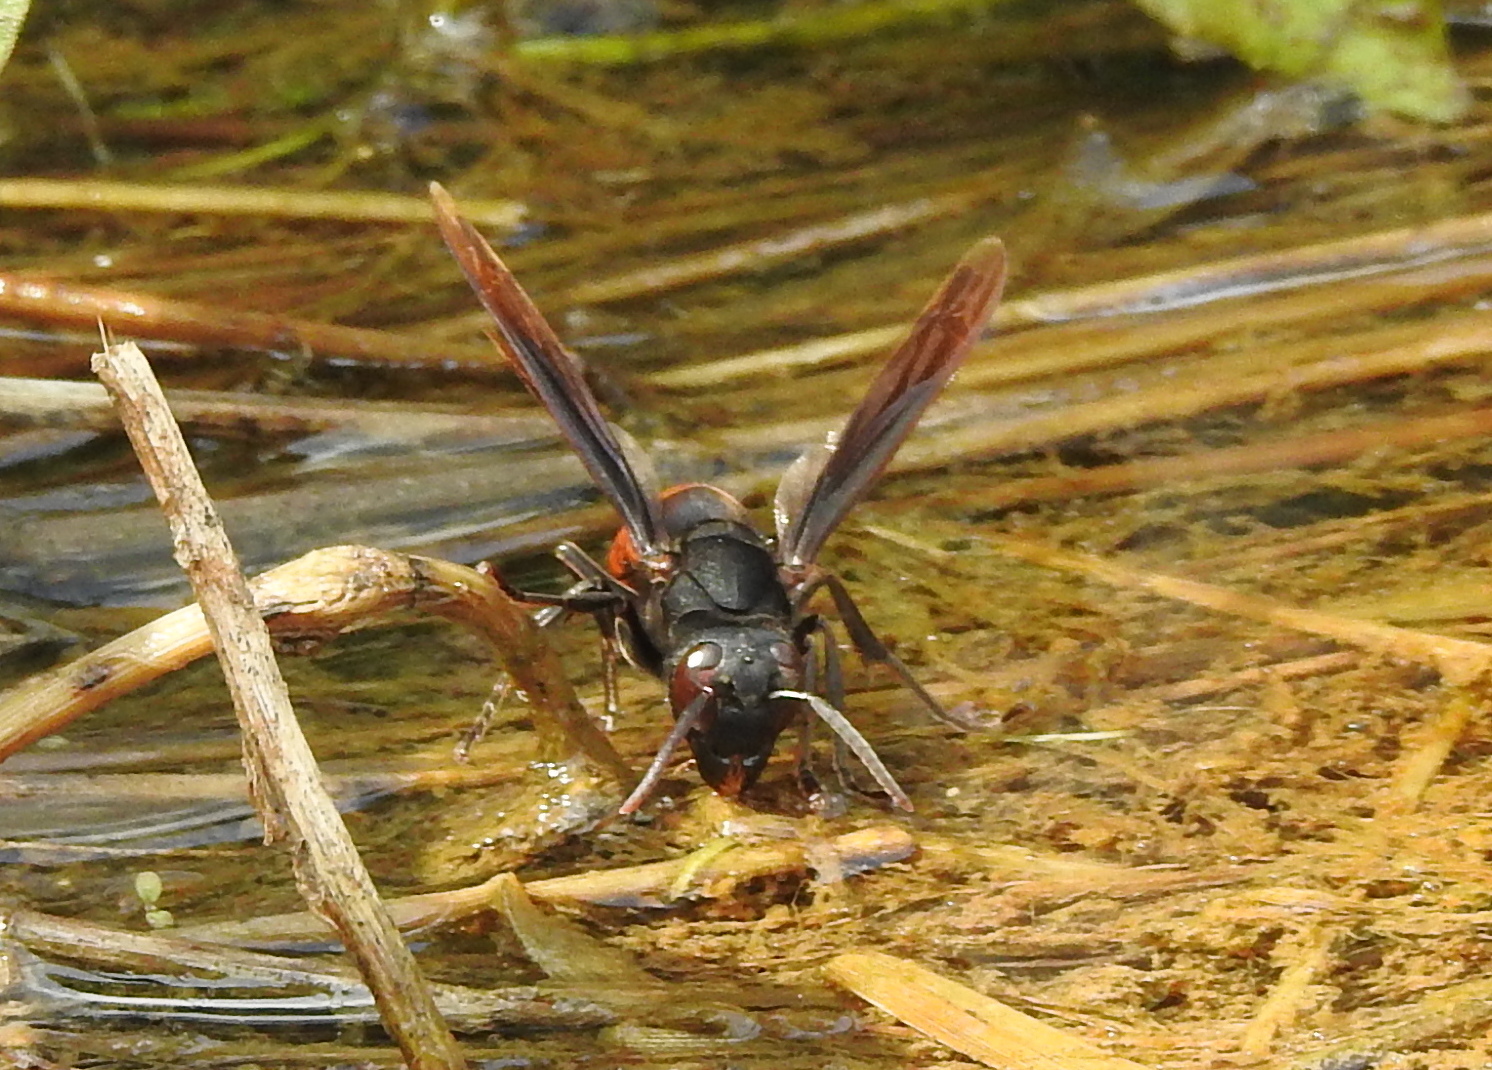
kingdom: Animalia
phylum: Arthropoda
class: Insecta
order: Hymenoptera
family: Vespidae
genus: Vespa
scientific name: Vespa affinis
